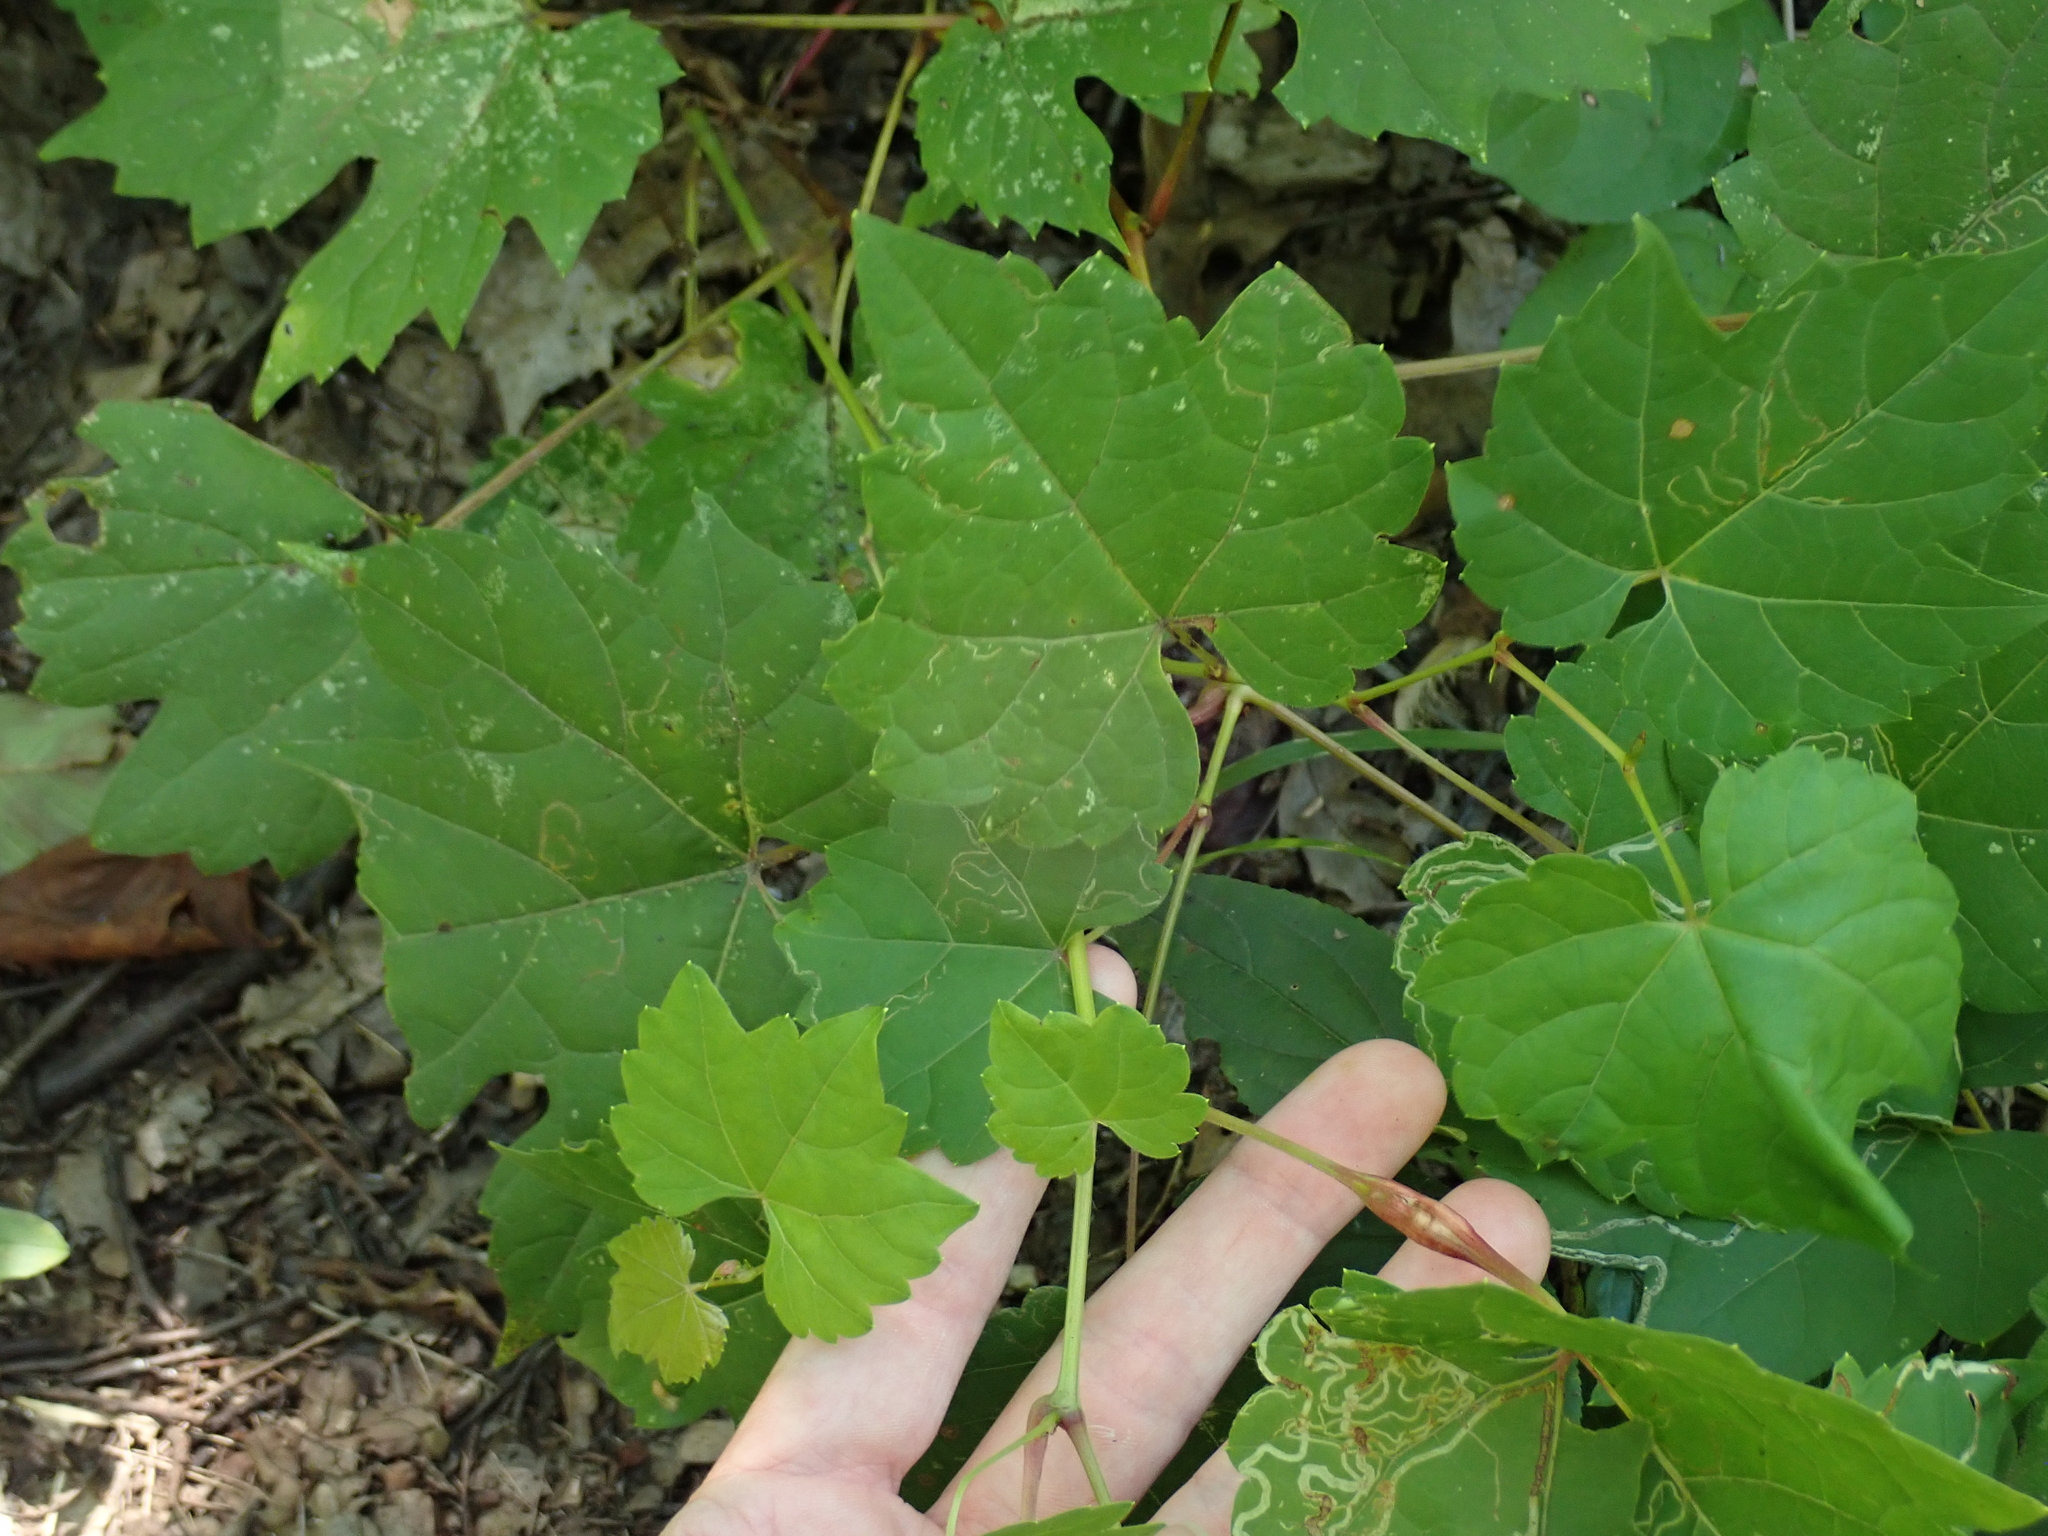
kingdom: Animalia
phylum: Arthropoda
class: Insecta
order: Diptera
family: Cecidomyiidae
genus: Neolasioptera
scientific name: Neolasioptera vitinea
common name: Grape leaf petiole gall
